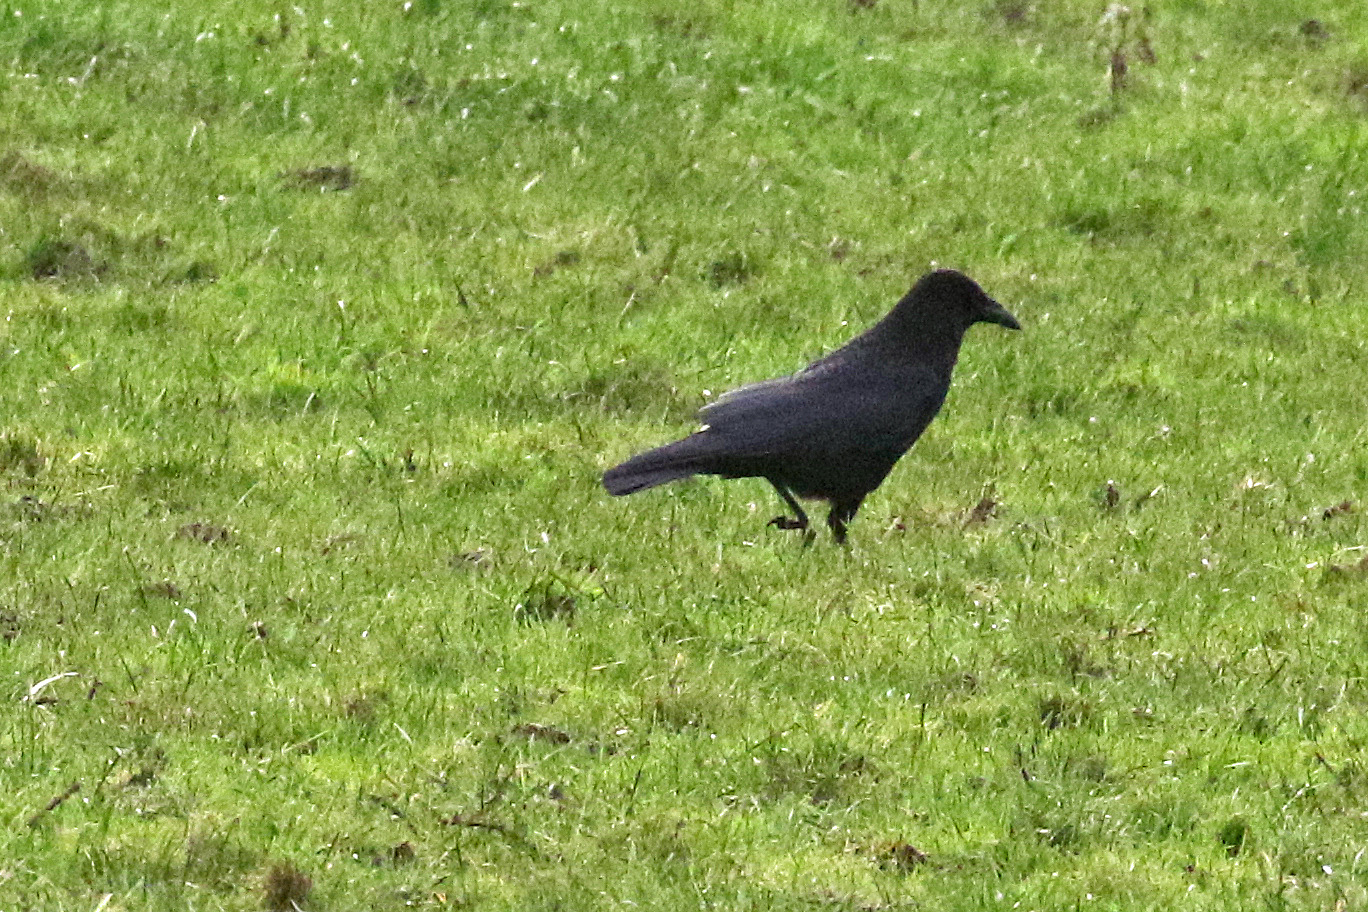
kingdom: Animalia
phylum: Chordata
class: Aves
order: Passeriformes
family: Corvidae
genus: Corvus
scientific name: Corvus corone
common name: Carrion crow
